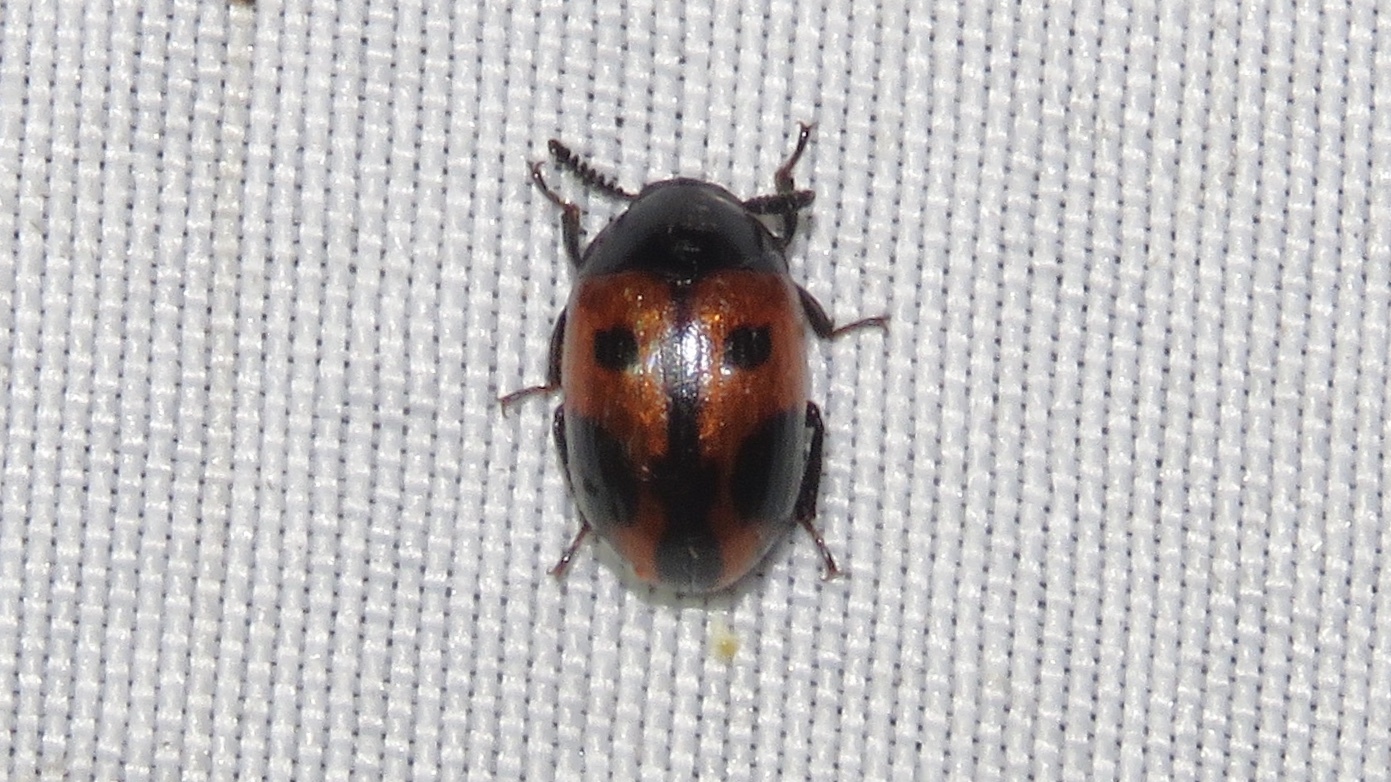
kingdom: Animalia
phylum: Arthropoda
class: Insecta
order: Coleoptera
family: Tenebrionidae
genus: Diaperis
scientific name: Diaperis maculata
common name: Darkling beetle
